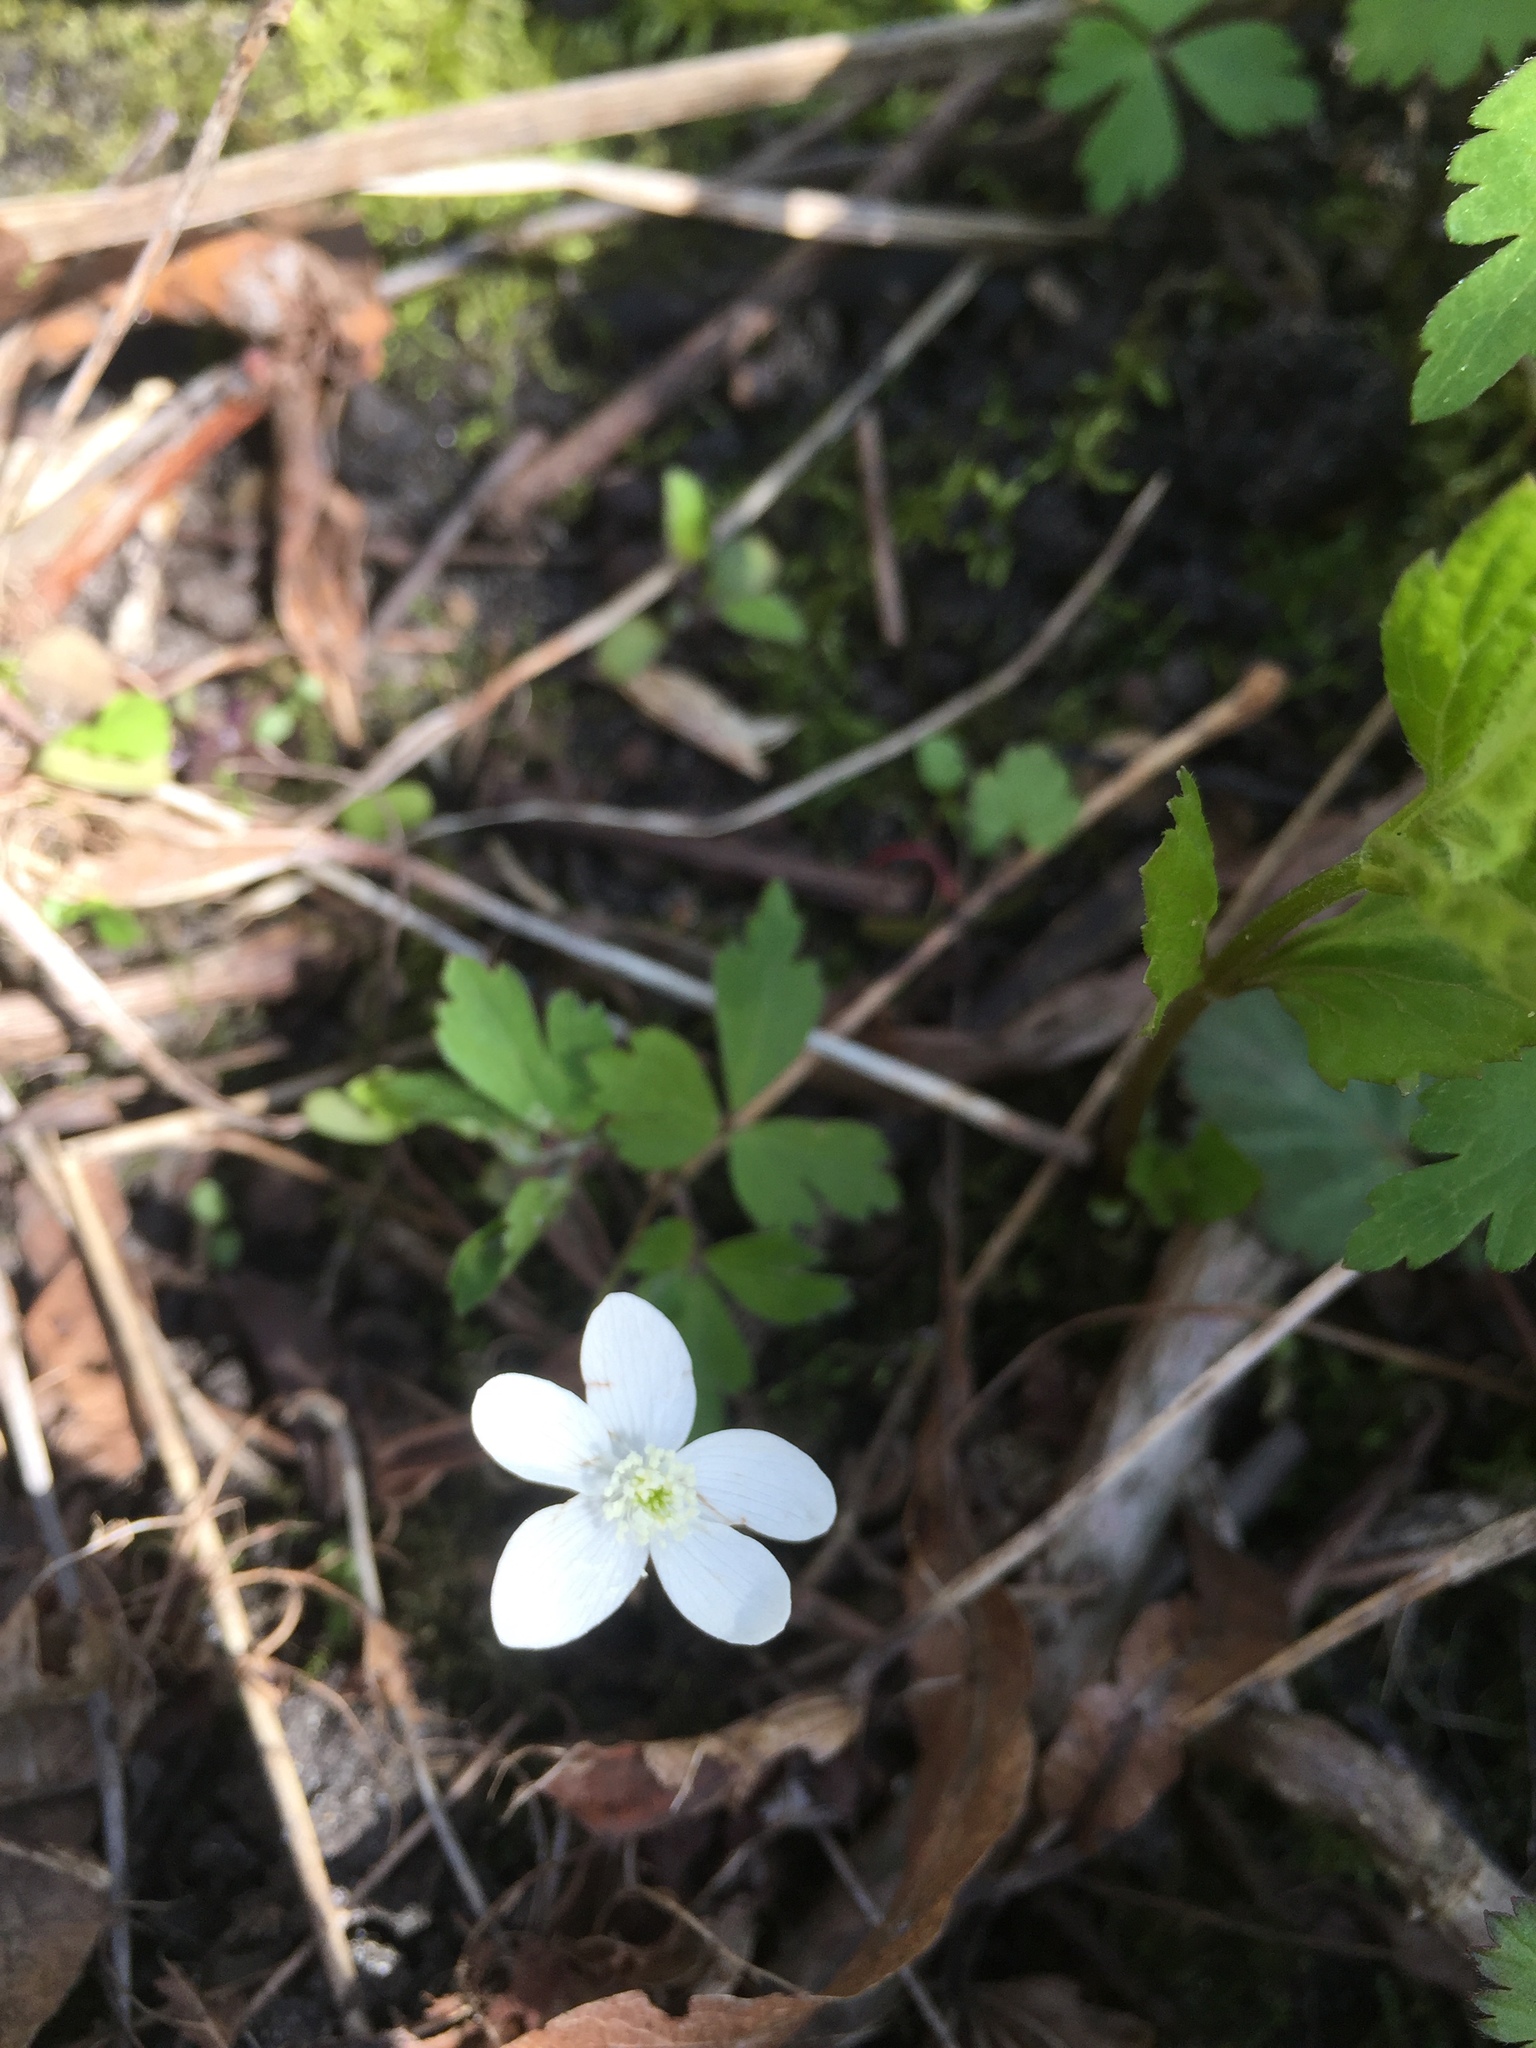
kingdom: Plantae
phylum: Tracheophyta
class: Magnoliopsida
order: Ranunculales
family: Ranunculaceae
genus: Anemone
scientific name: Anemone quinquefolia
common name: Wood anemone
